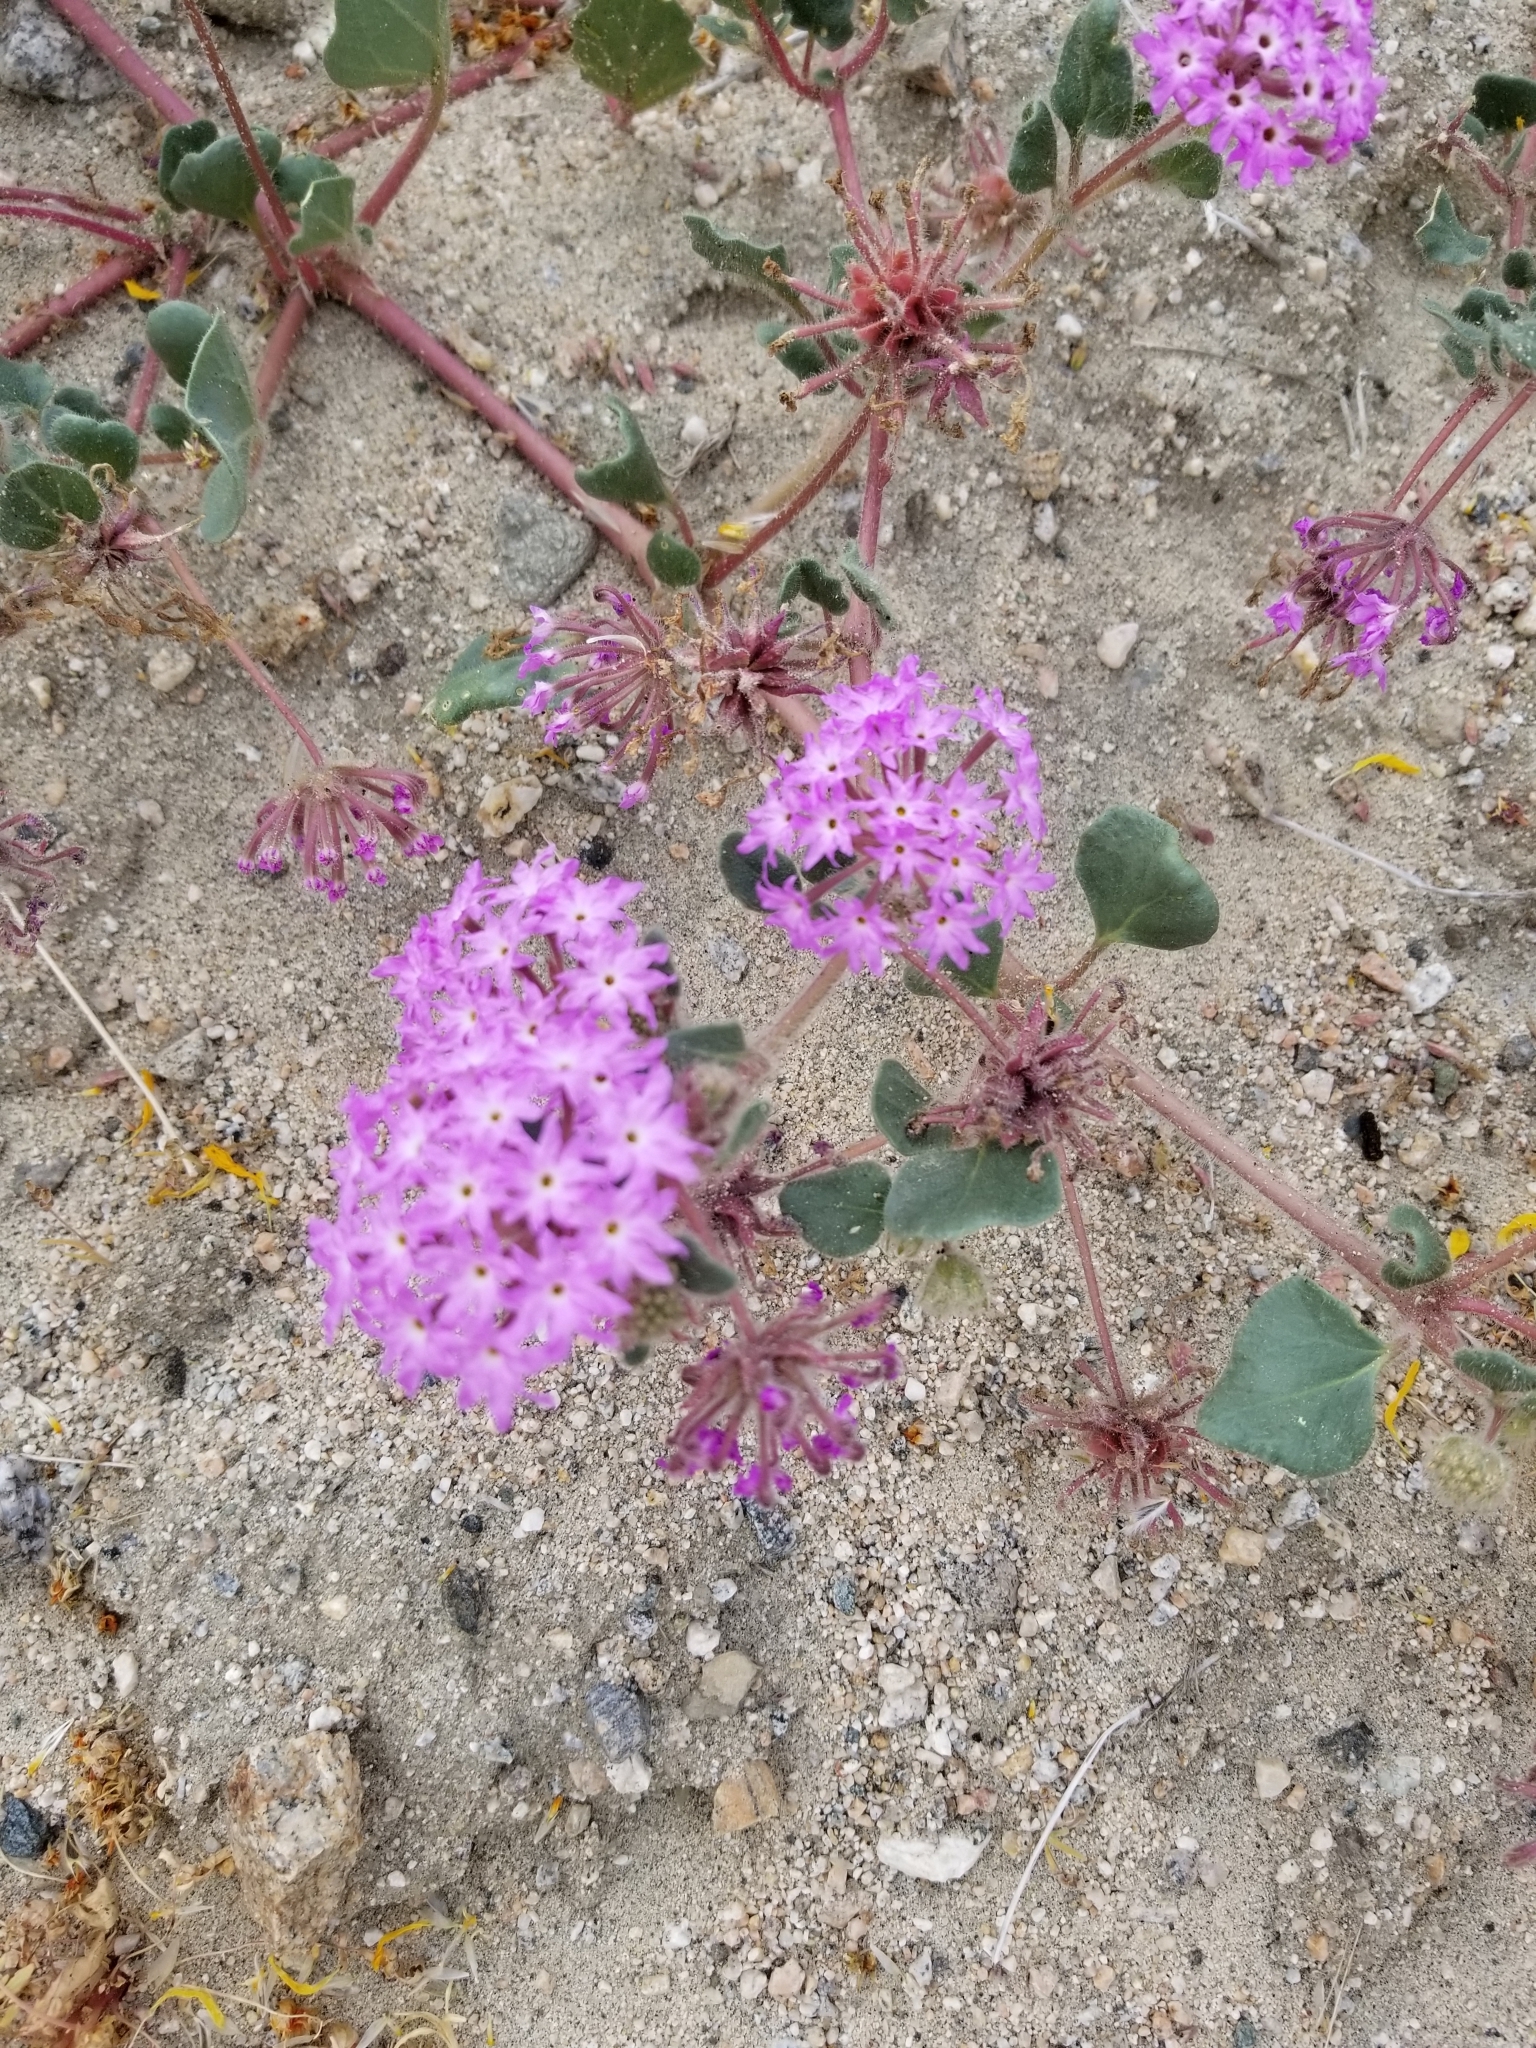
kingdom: Plantae
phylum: Tracheophyta
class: Magnoliopsida
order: Caryophyllales
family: Nyctaginaceae
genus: Abronia
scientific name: Abronia villosa
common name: Desert sand-verbena
